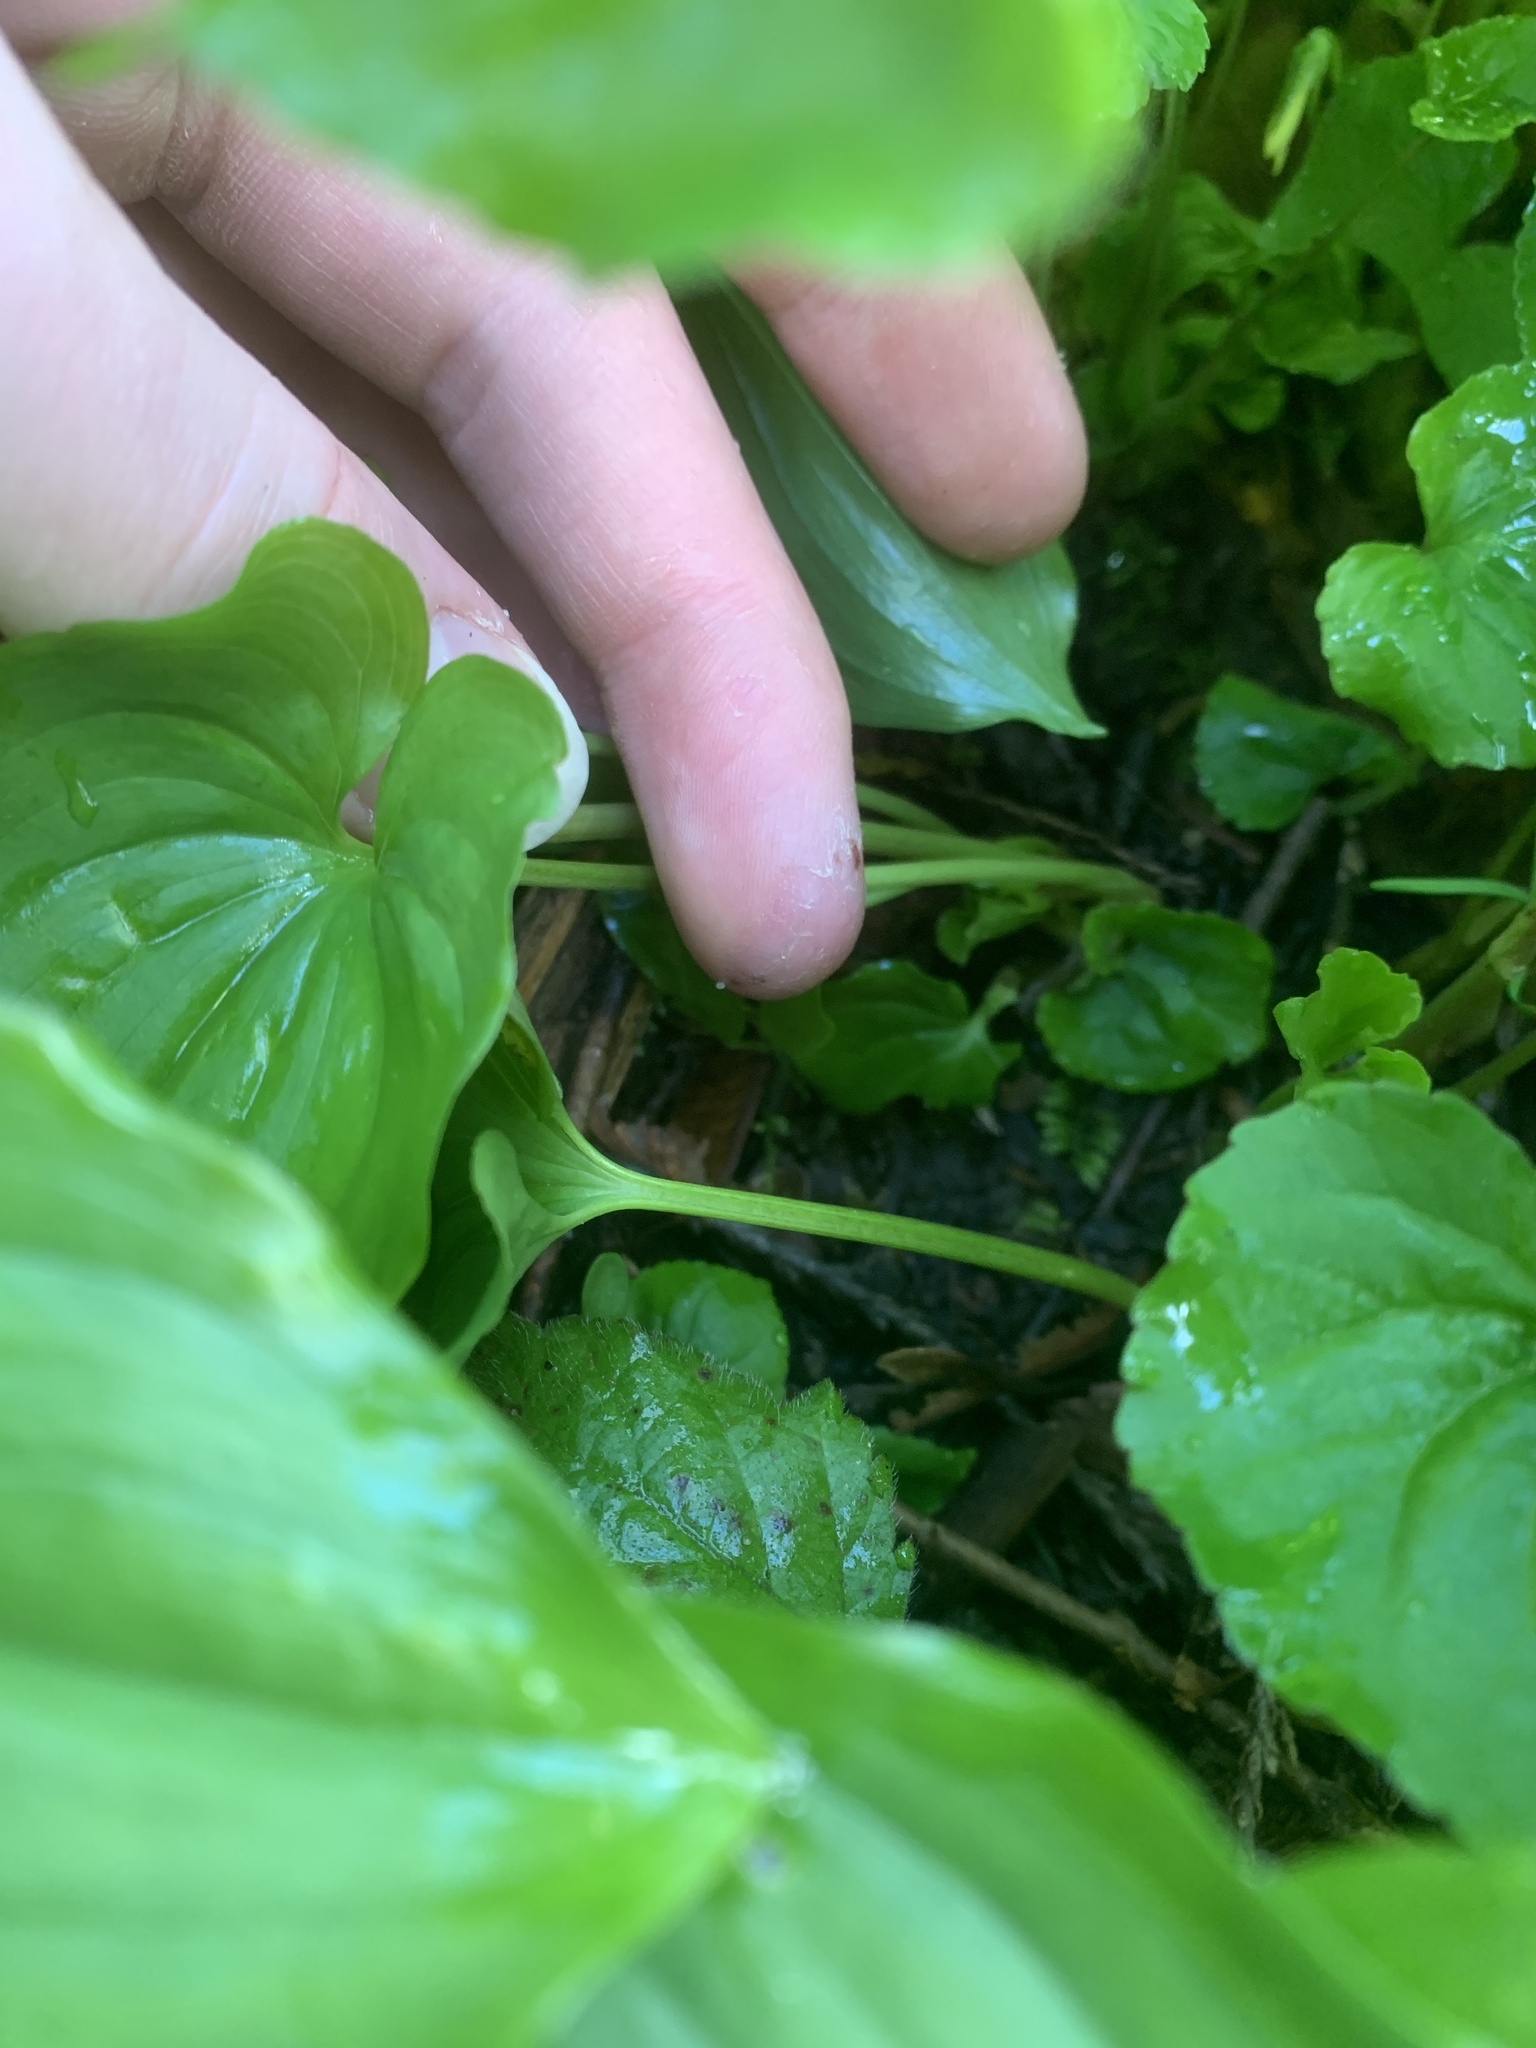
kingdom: Plantae
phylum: Tracheophyta
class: Magnoliopsida
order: Malpighiales
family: Violaceae
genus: Viola
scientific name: Viola glabella
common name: Stream violet
